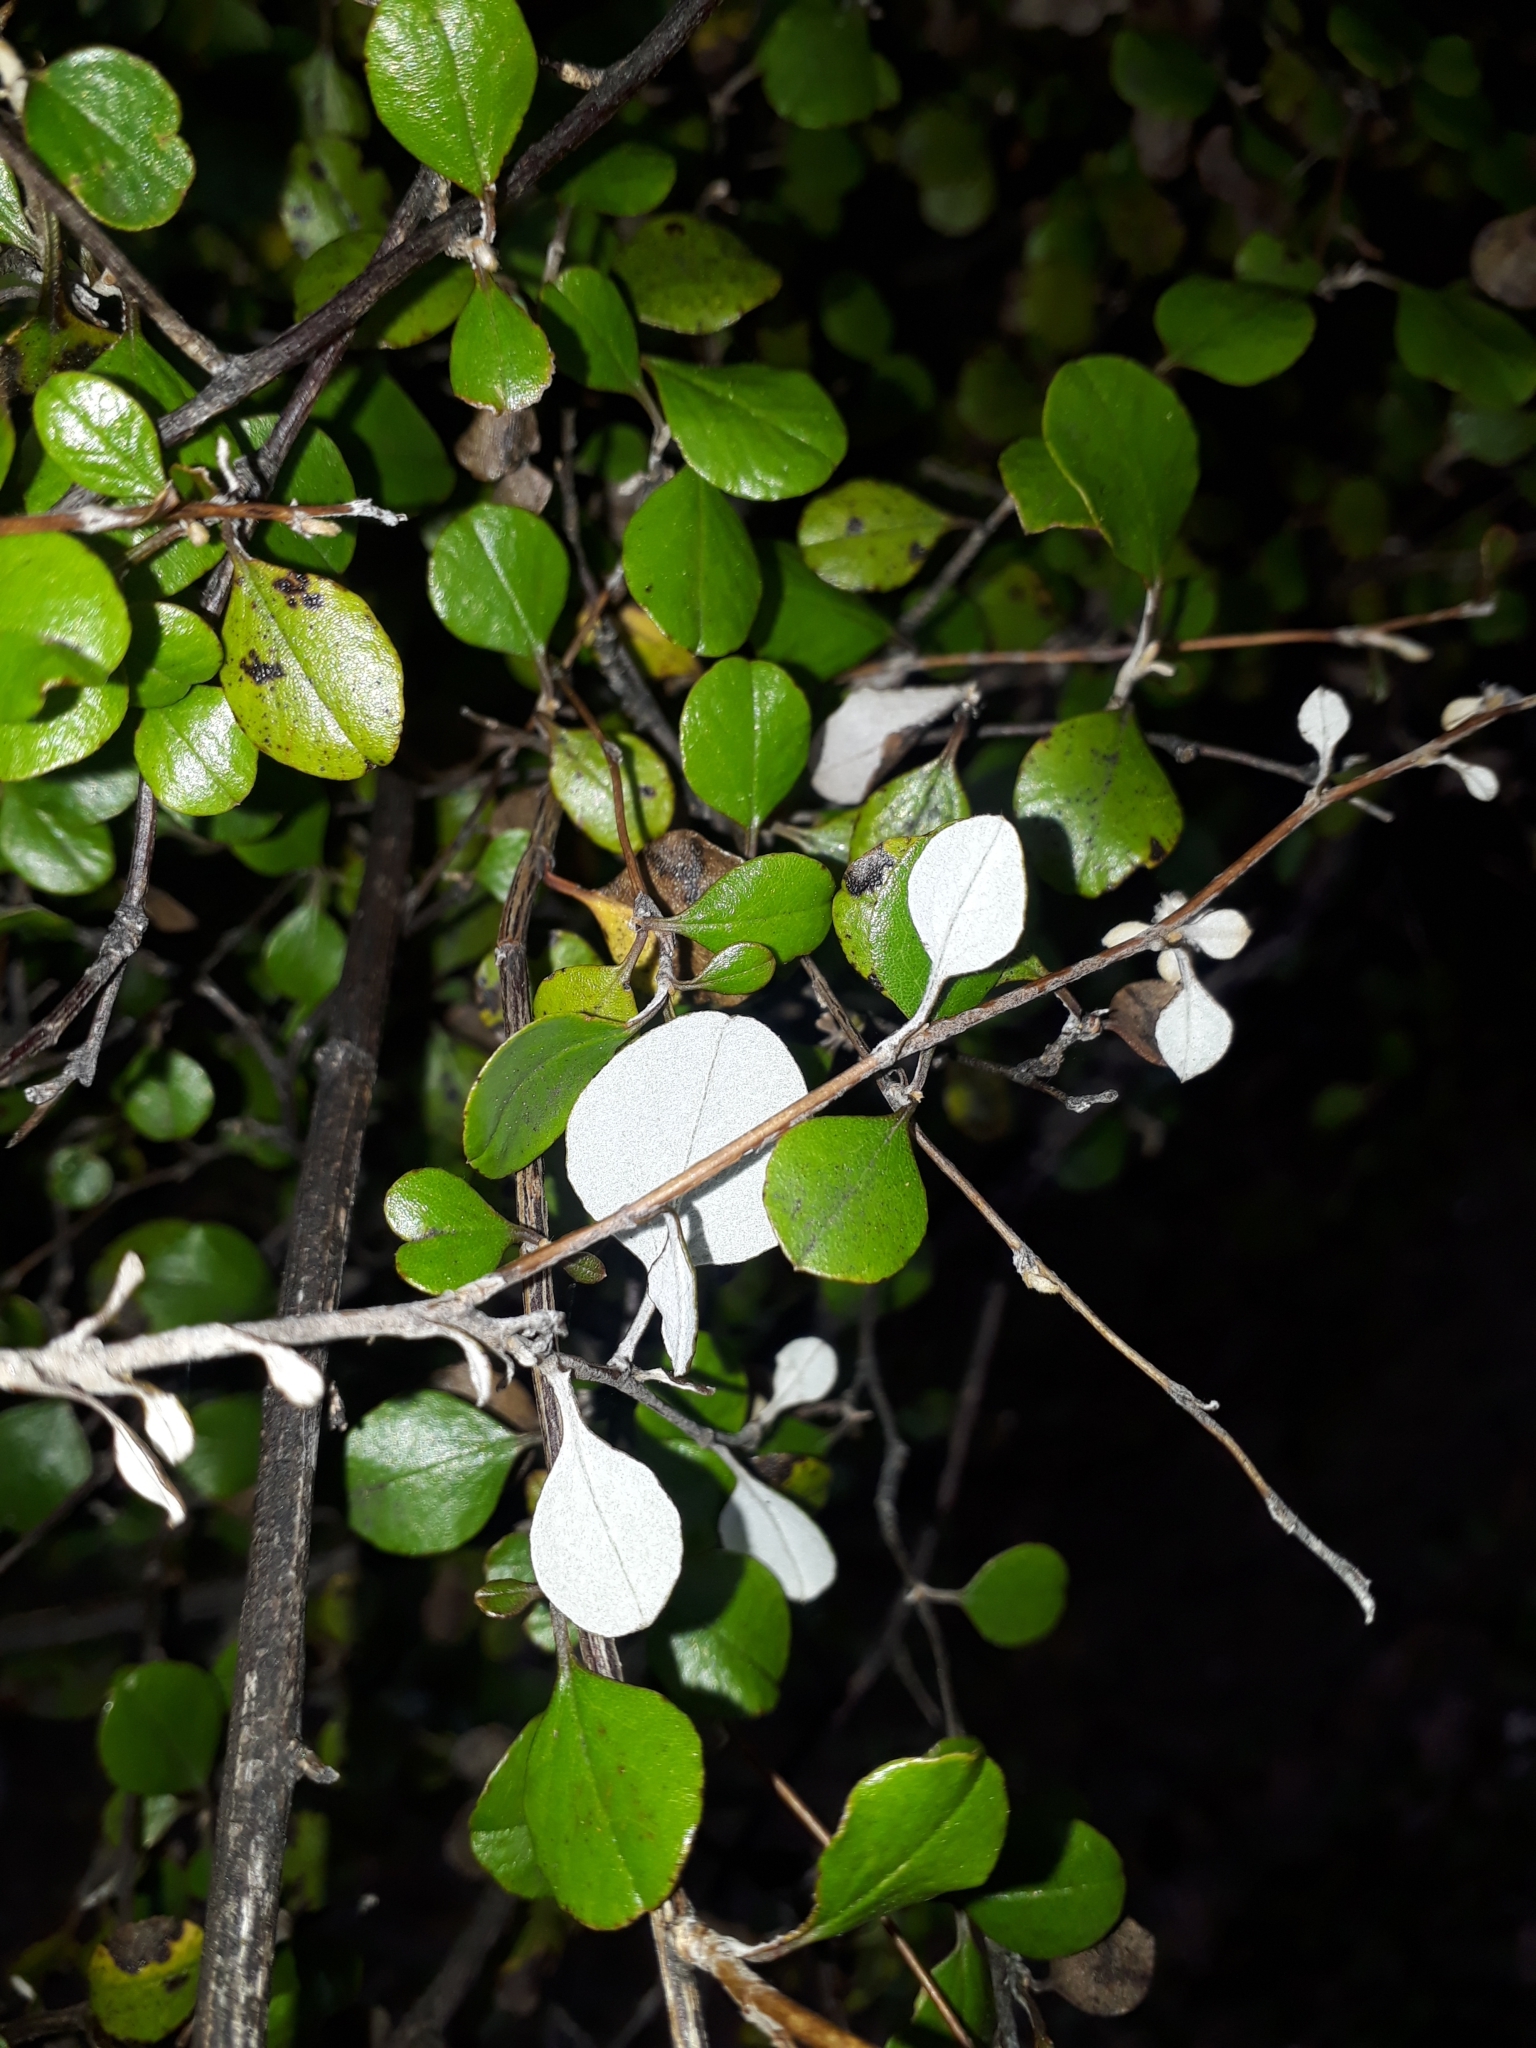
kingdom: Plantae
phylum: Tracheophyta
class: Magnoliopsida
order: Asterales
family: Asteraceae
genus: Ozothamnus
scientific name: Ozothamnus glomeratus
